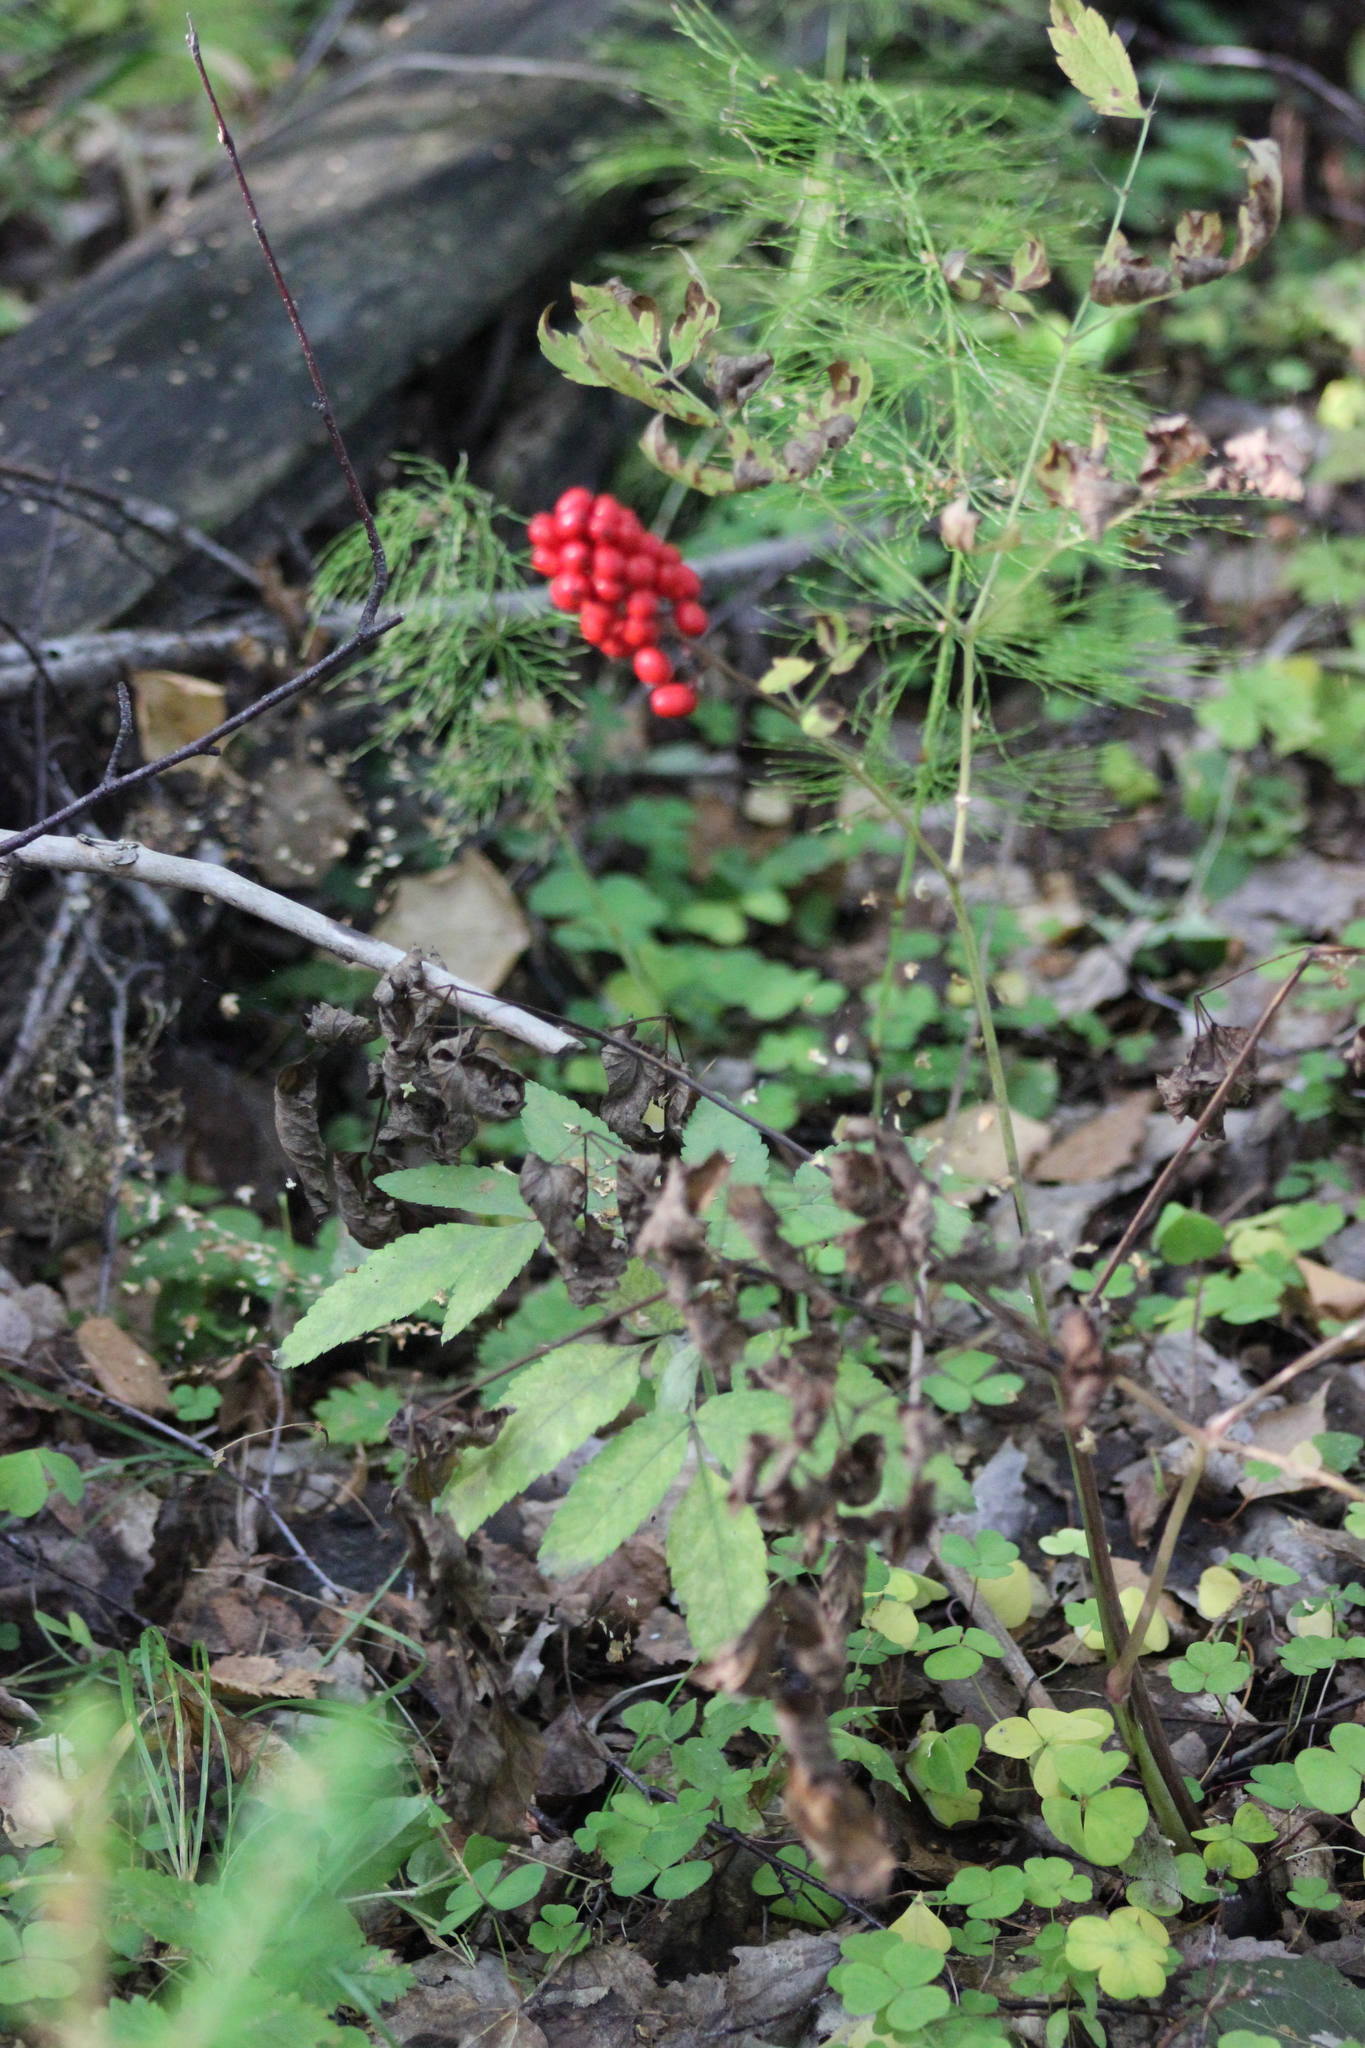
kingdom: Plantae
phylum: Tracheophyta
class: Magnoliopsida
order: Ranunculales
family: Ranunculaceae
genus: Actaea
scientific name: Actaea erythrocarpa
